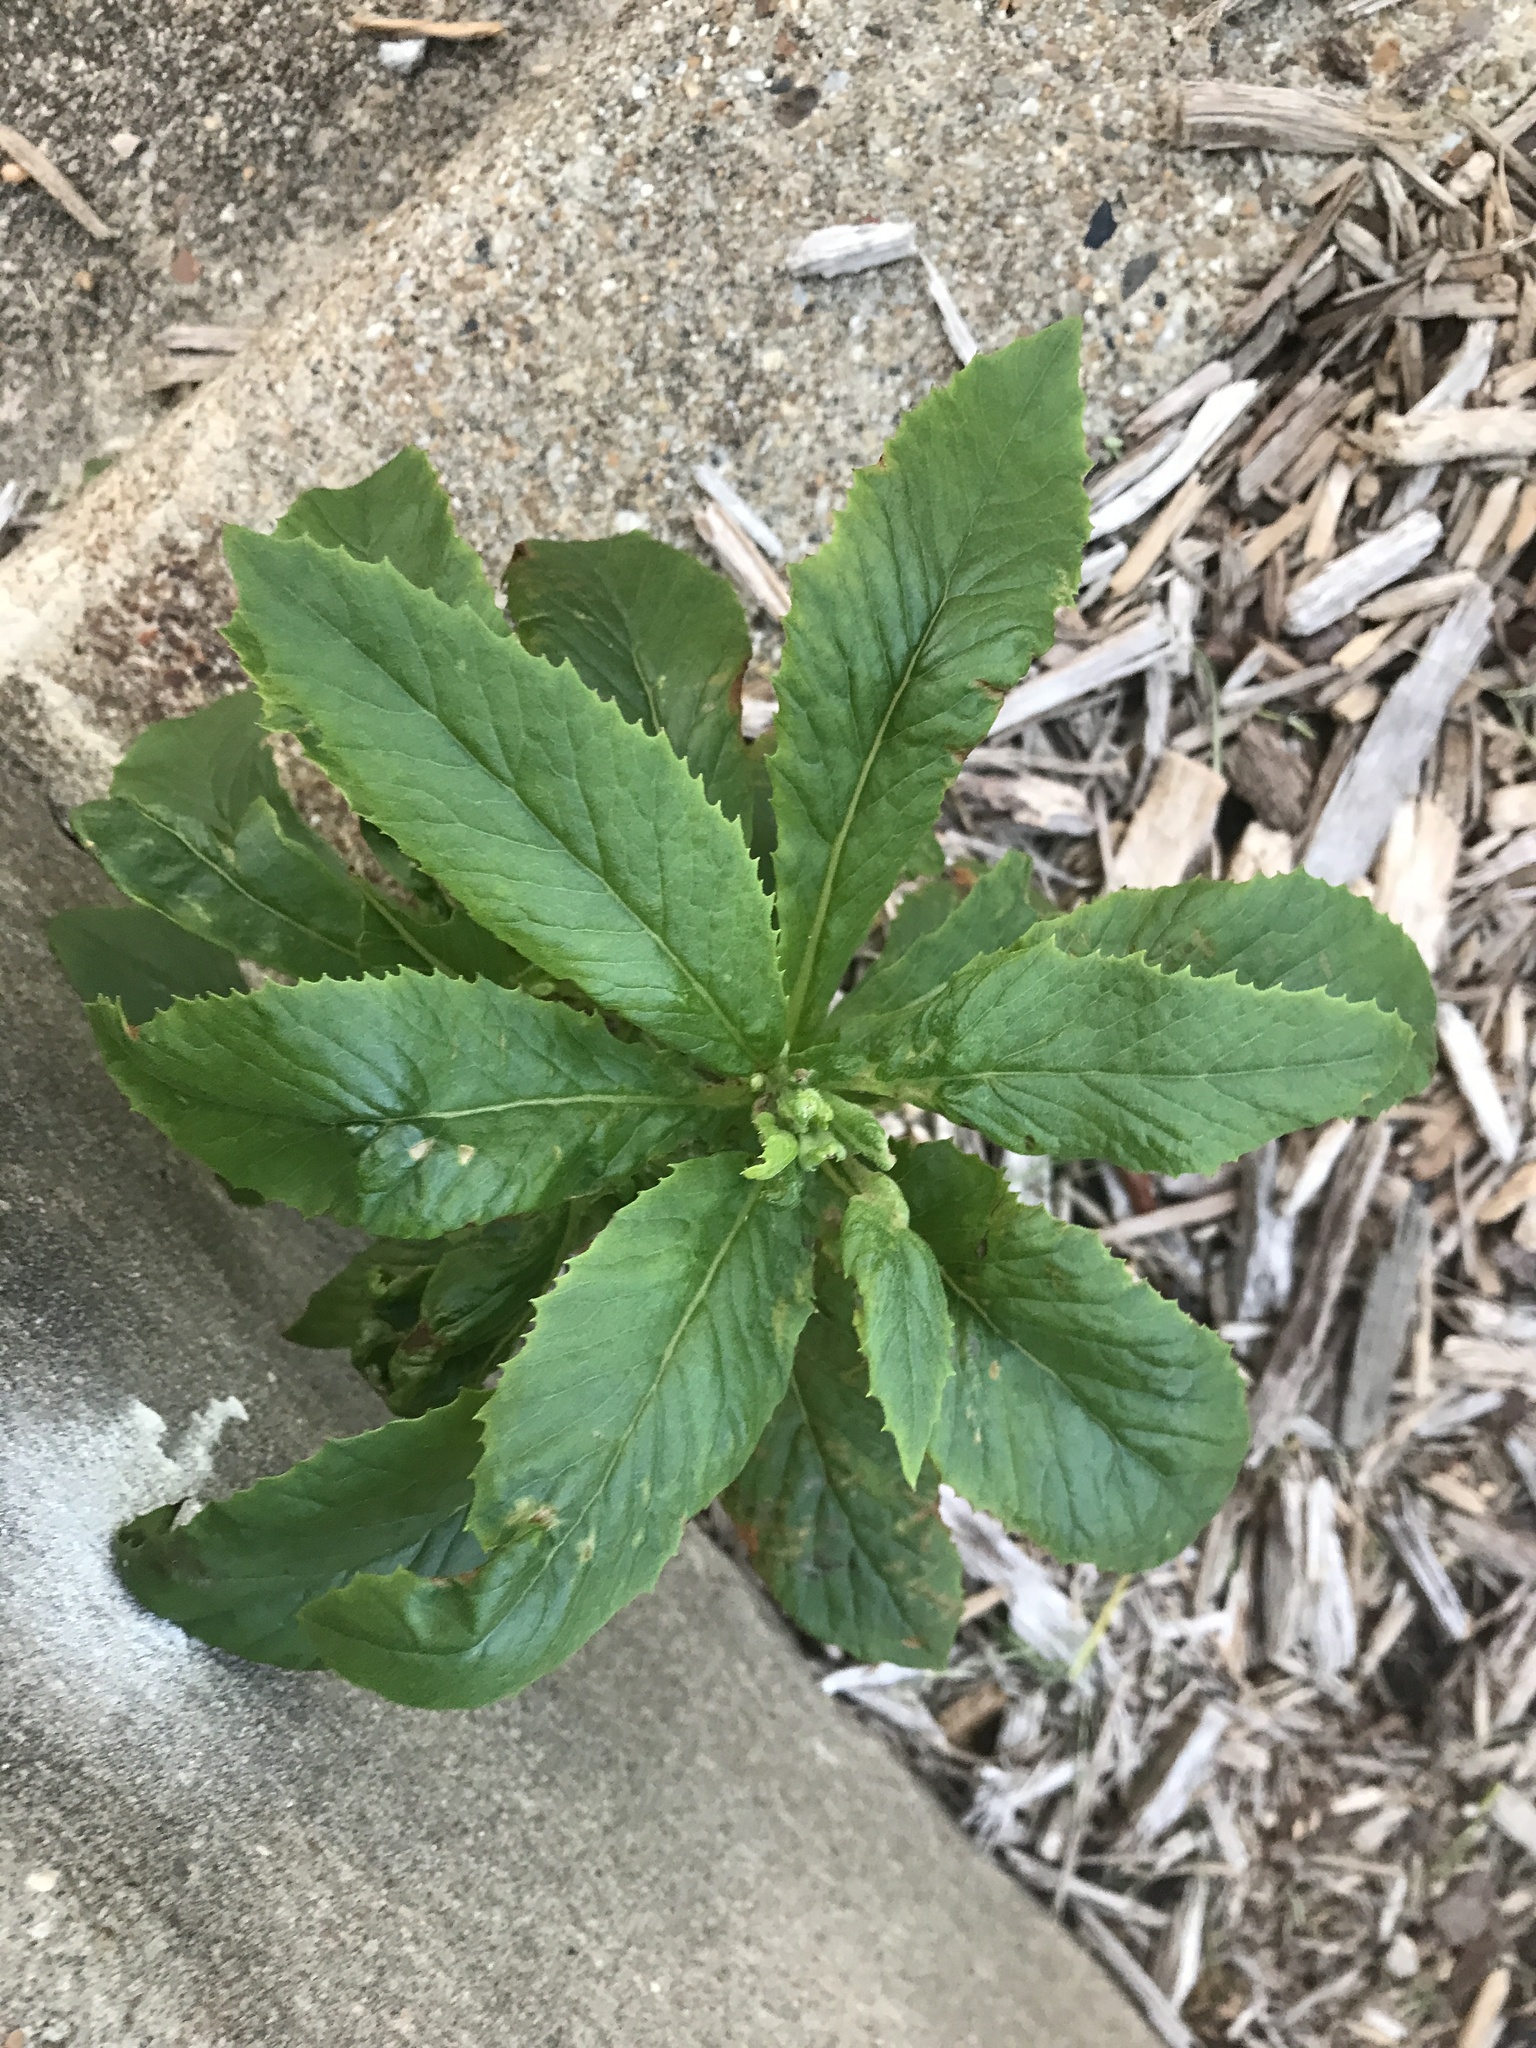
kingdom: Plantae
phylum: Tracheophyta
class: Magnoliopsida
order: Asterales
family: Asteraceae
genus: Erechtites
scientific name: Erechtites hieraciifolius
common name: American burnweed
